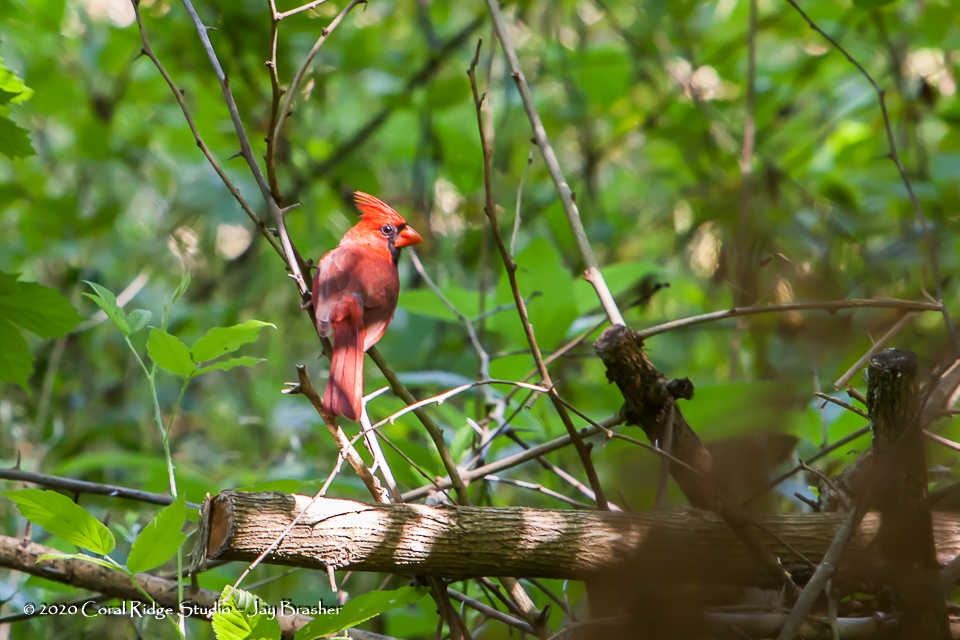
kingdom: Animalia
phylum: Chordata
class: Aves
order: Passeriformes
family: Cardinalidae
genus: Cardinalis
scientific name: Cardinalis cardinalis
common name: Northern cardinal
